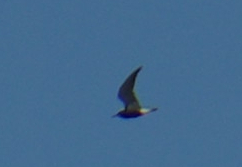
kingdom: Animalia
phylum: Chordata
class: Aves
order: Charadriiformes
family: Laridae
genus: Chlidonias
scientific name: Chlidonias niger
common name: Black tern
